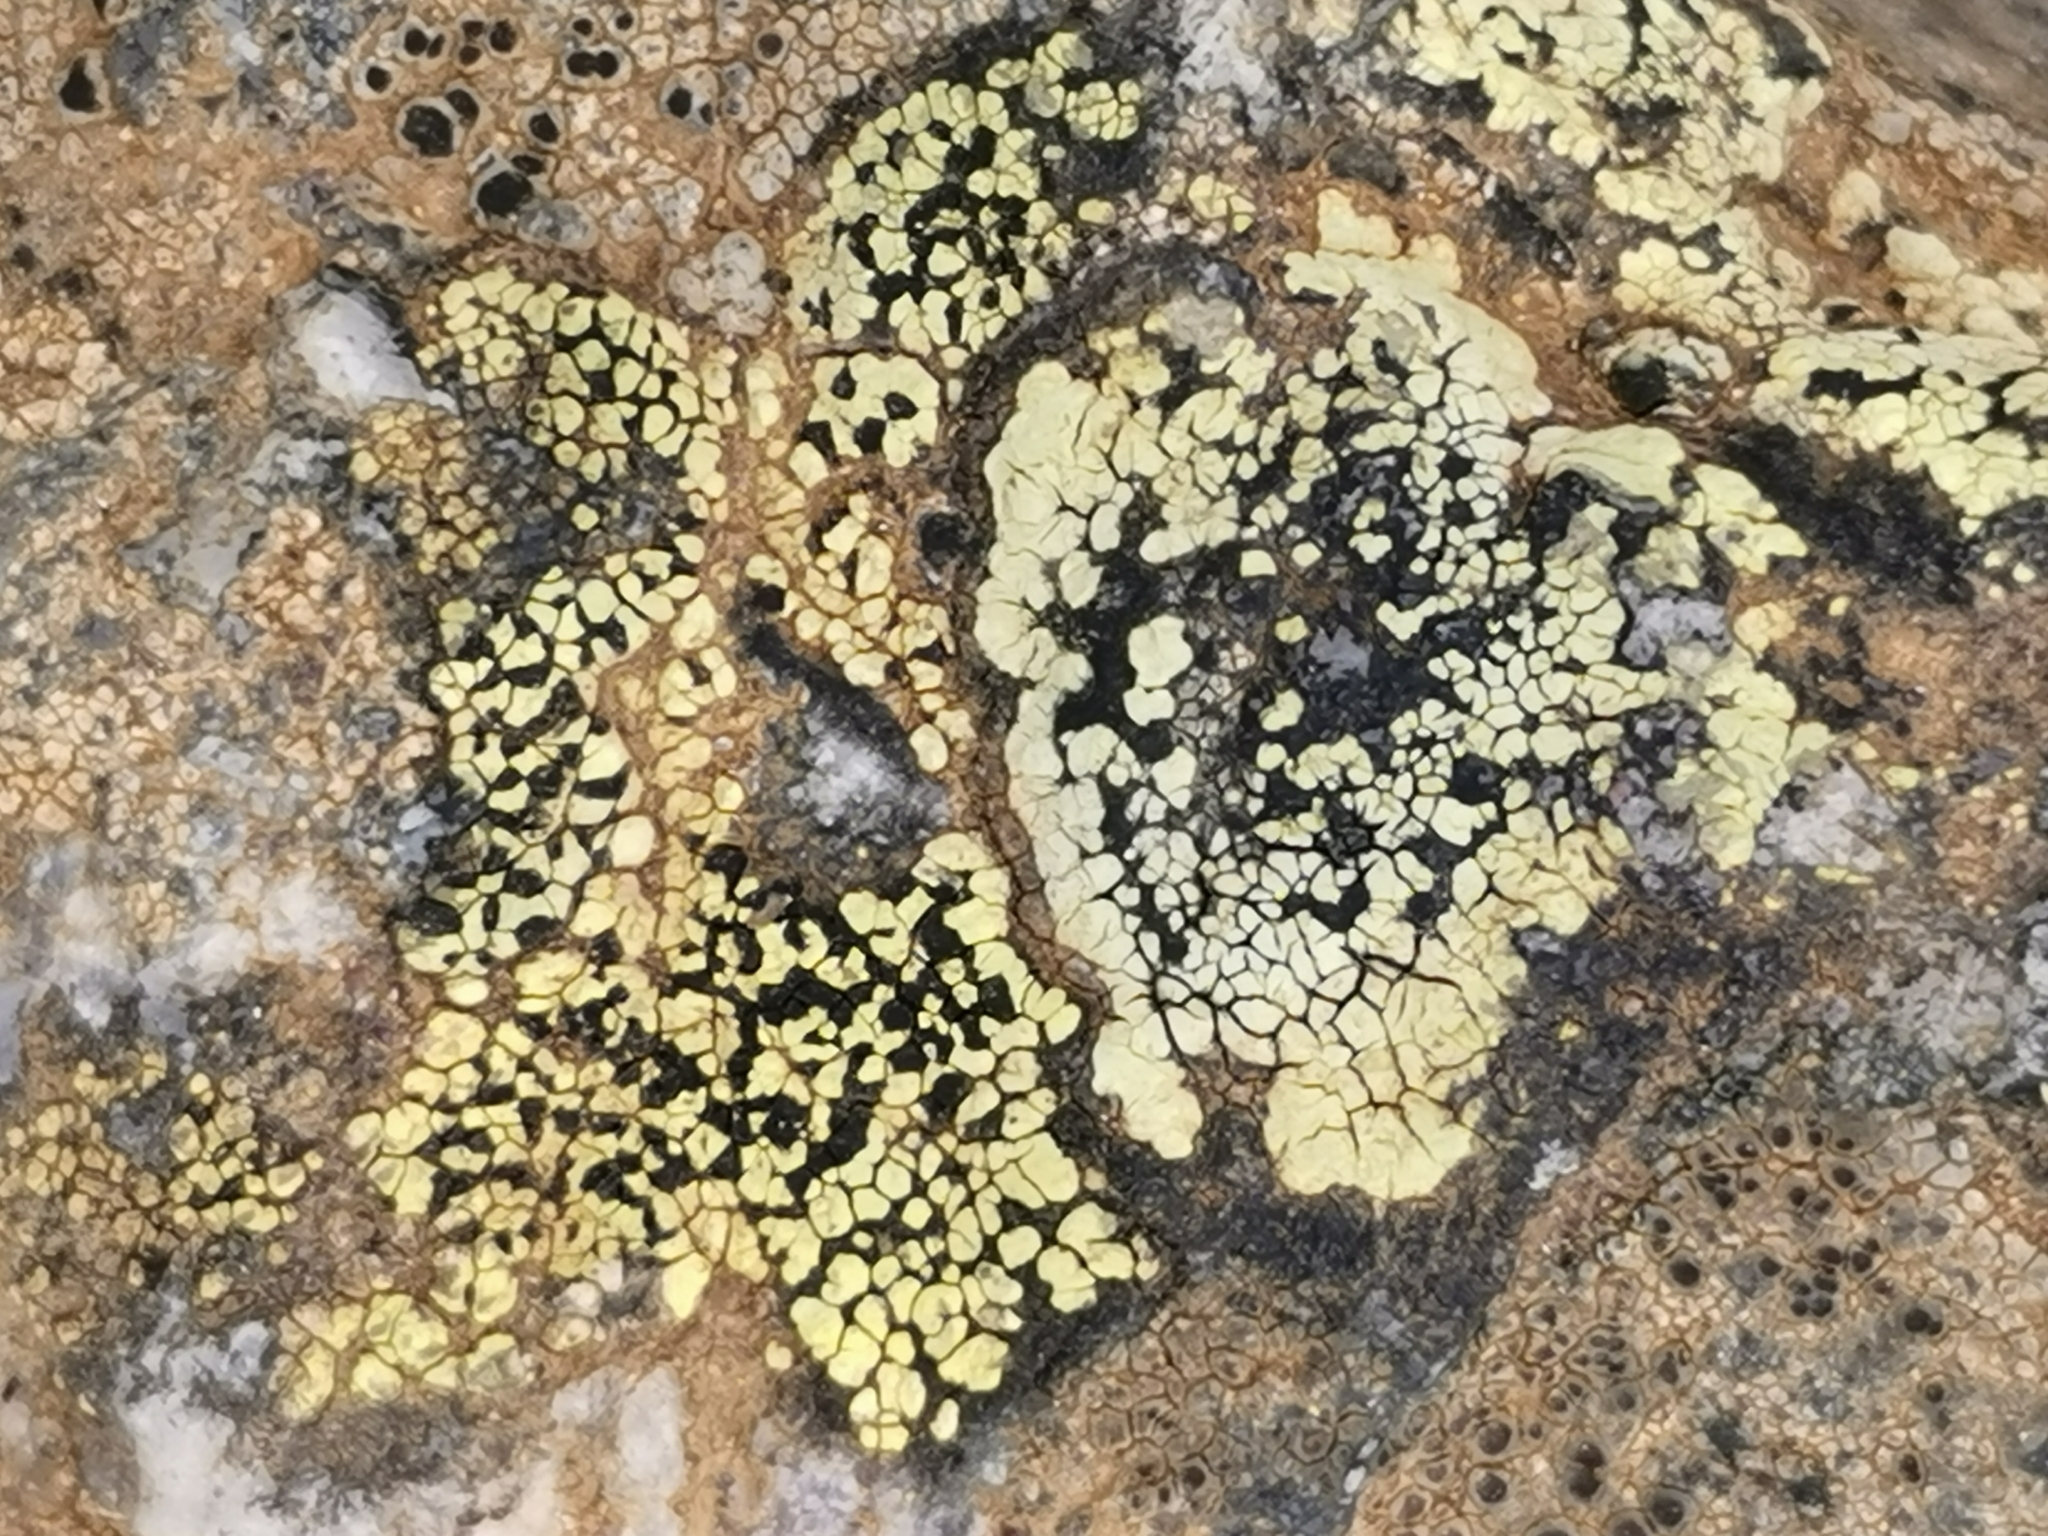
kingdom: Fungi
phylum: Ascomycota
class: Lecanoromycetes
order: Rhizocarpales
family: Rhizocarpaceae
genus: Rhizocarpon
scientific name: Rhizocarpon lecanorinum
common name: Crescent map lichen
